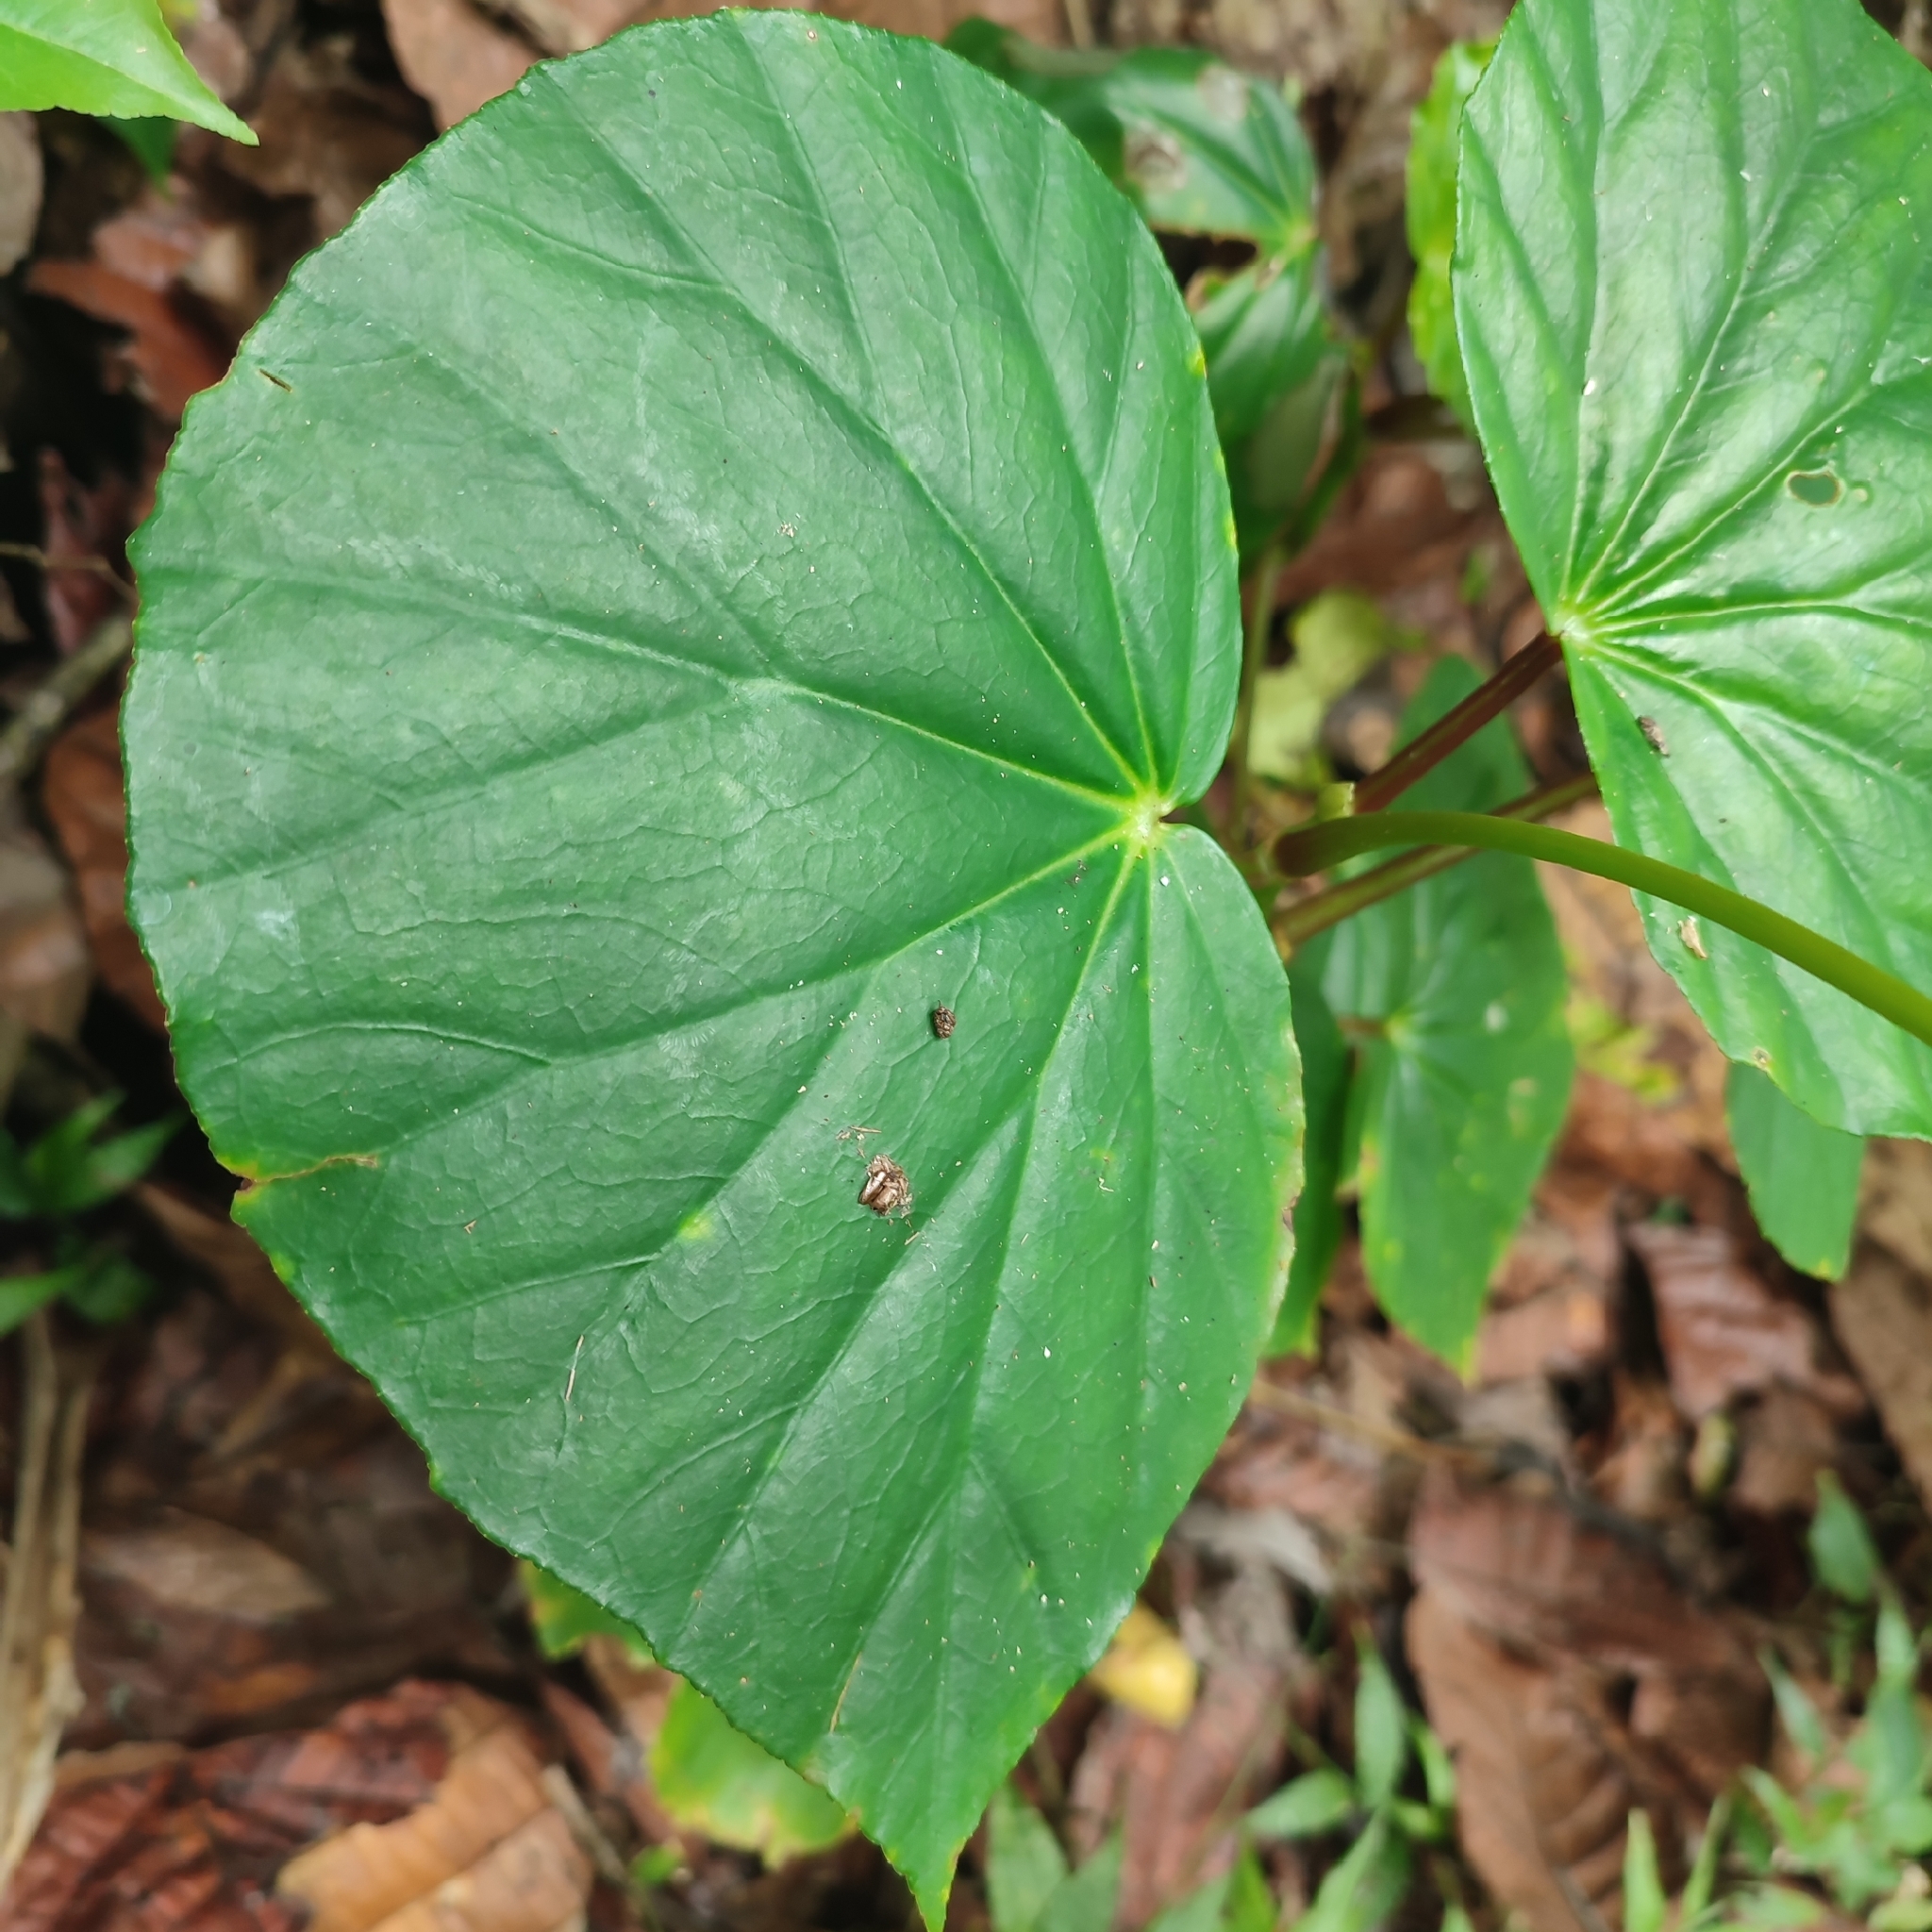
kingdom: Plantae
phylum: Tracheophyta
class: Magnoliopsida
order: Cucurbitales
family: Begoniaceae
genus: Begonia
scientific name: Begonia retusa
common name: Begonia
